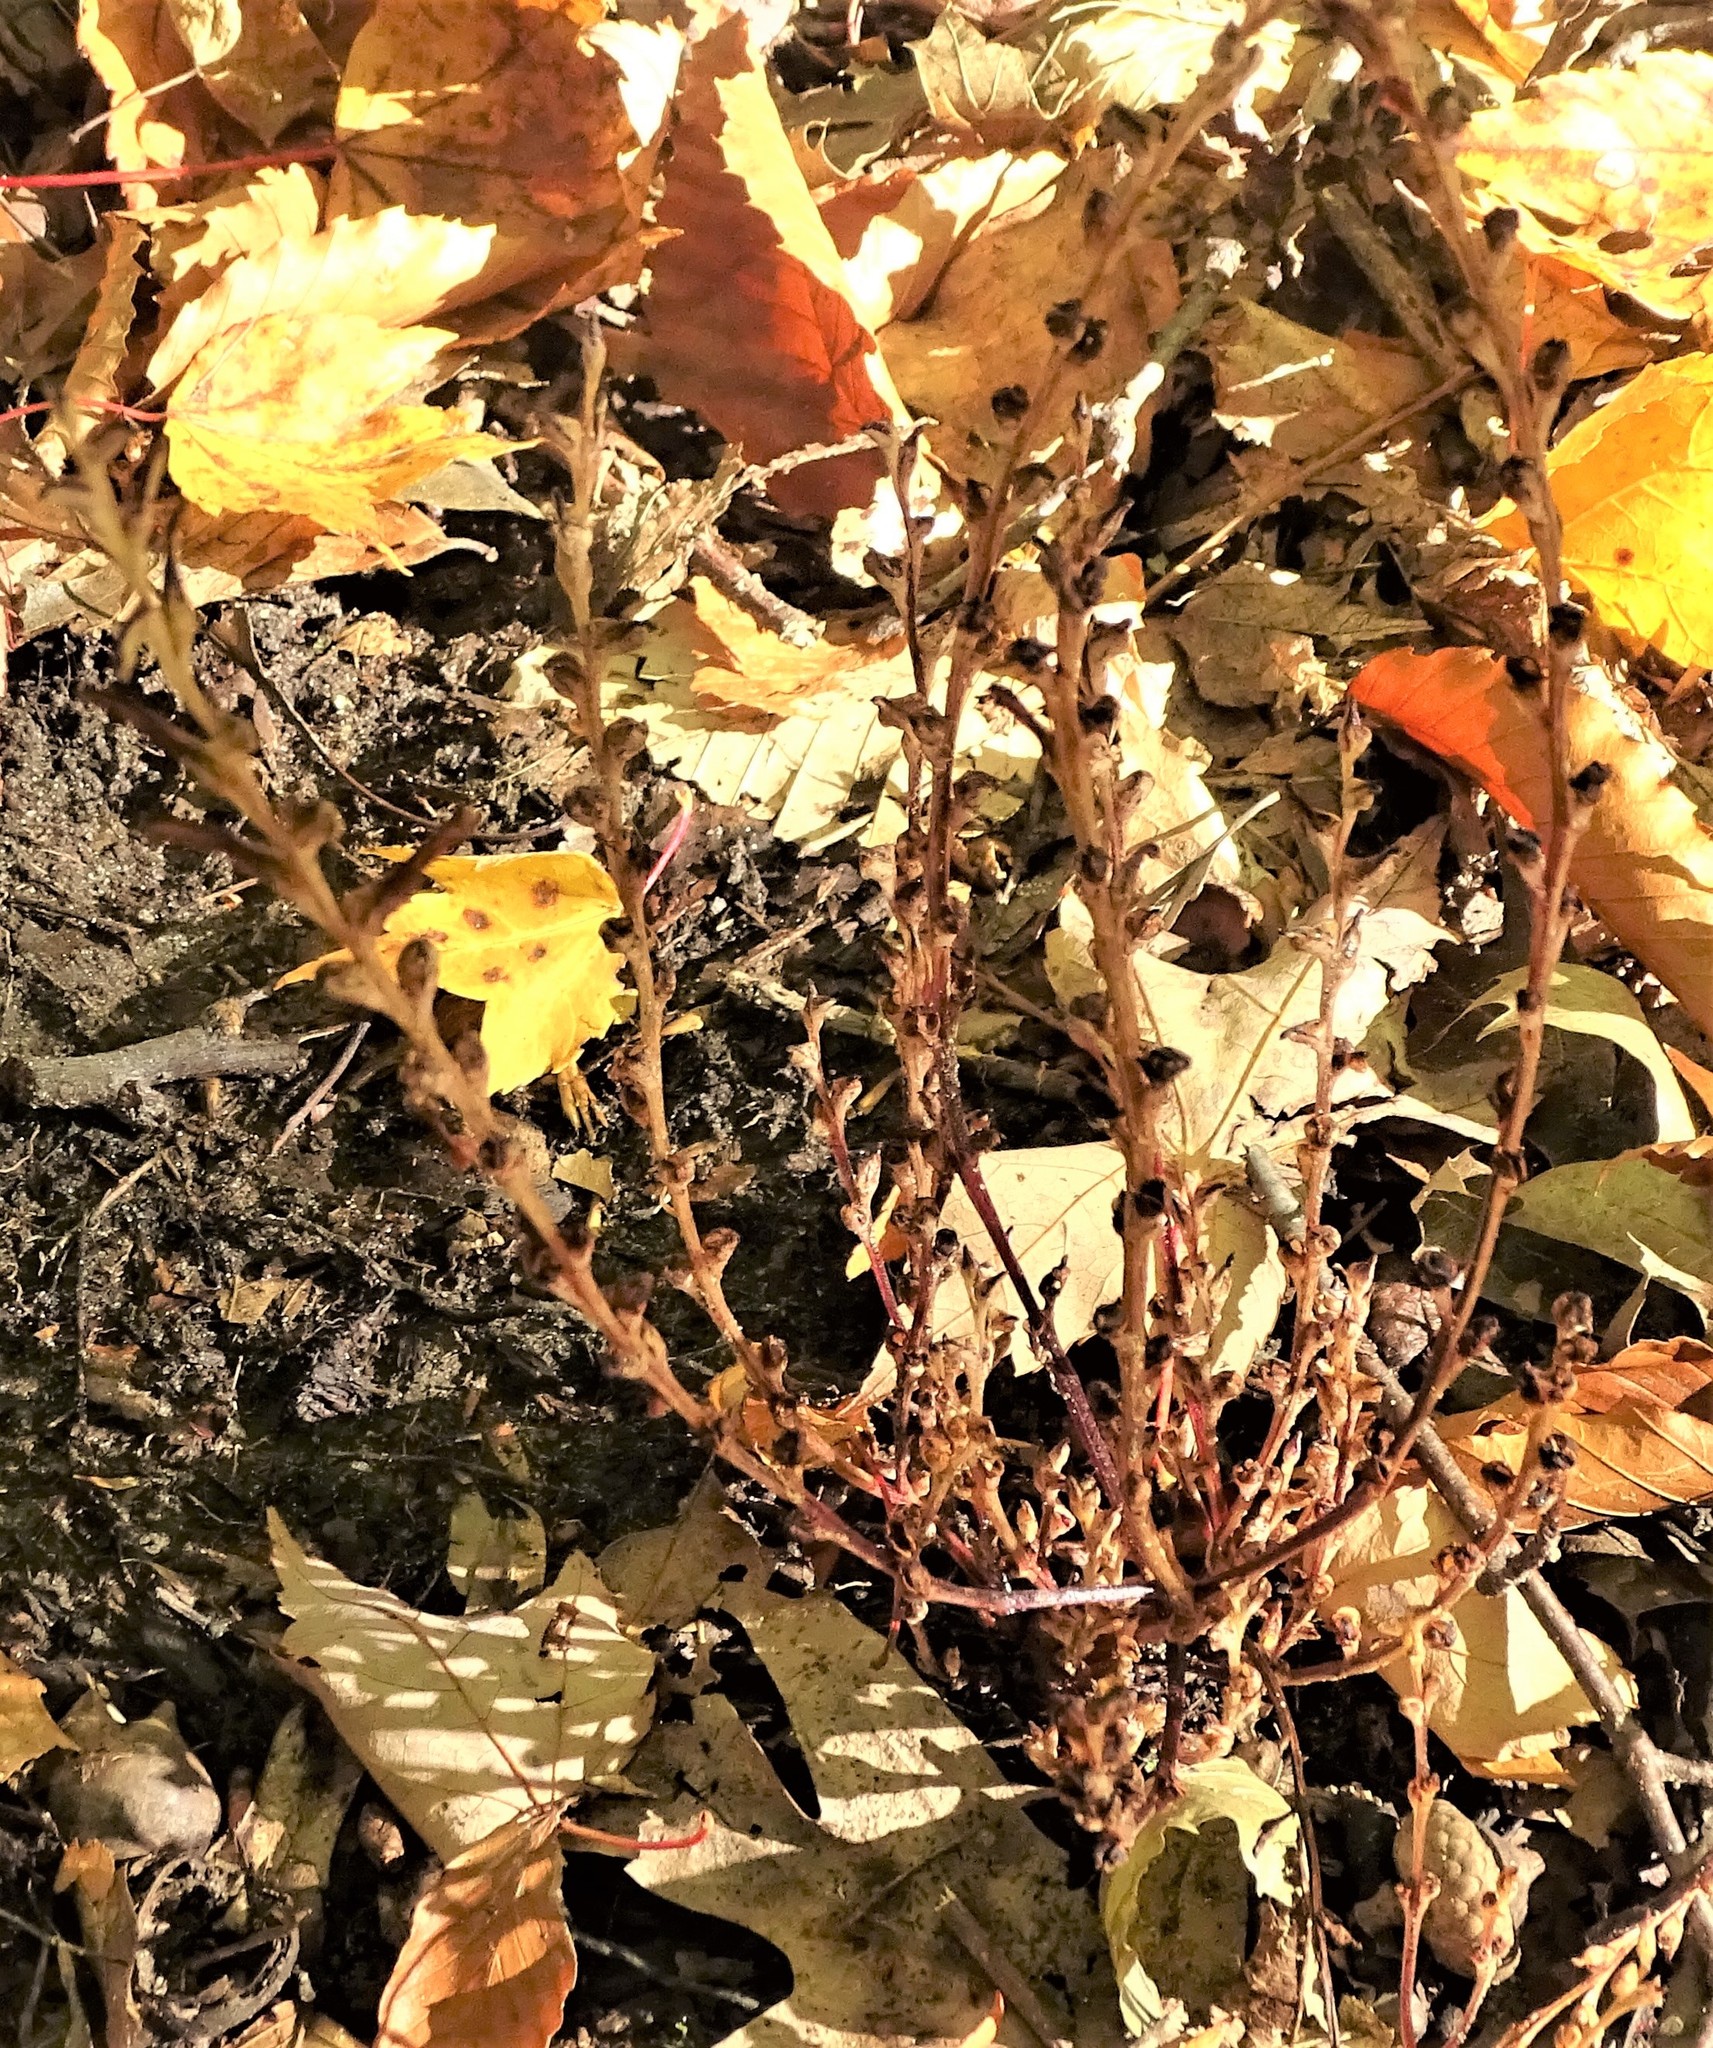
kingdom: Plantae
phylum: Tracheophyta
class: Magnoliopsida
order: Lamiales
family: Orobanchaceae
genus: Epifagus
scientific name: Epifagus virginiana
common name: Beechdrops
